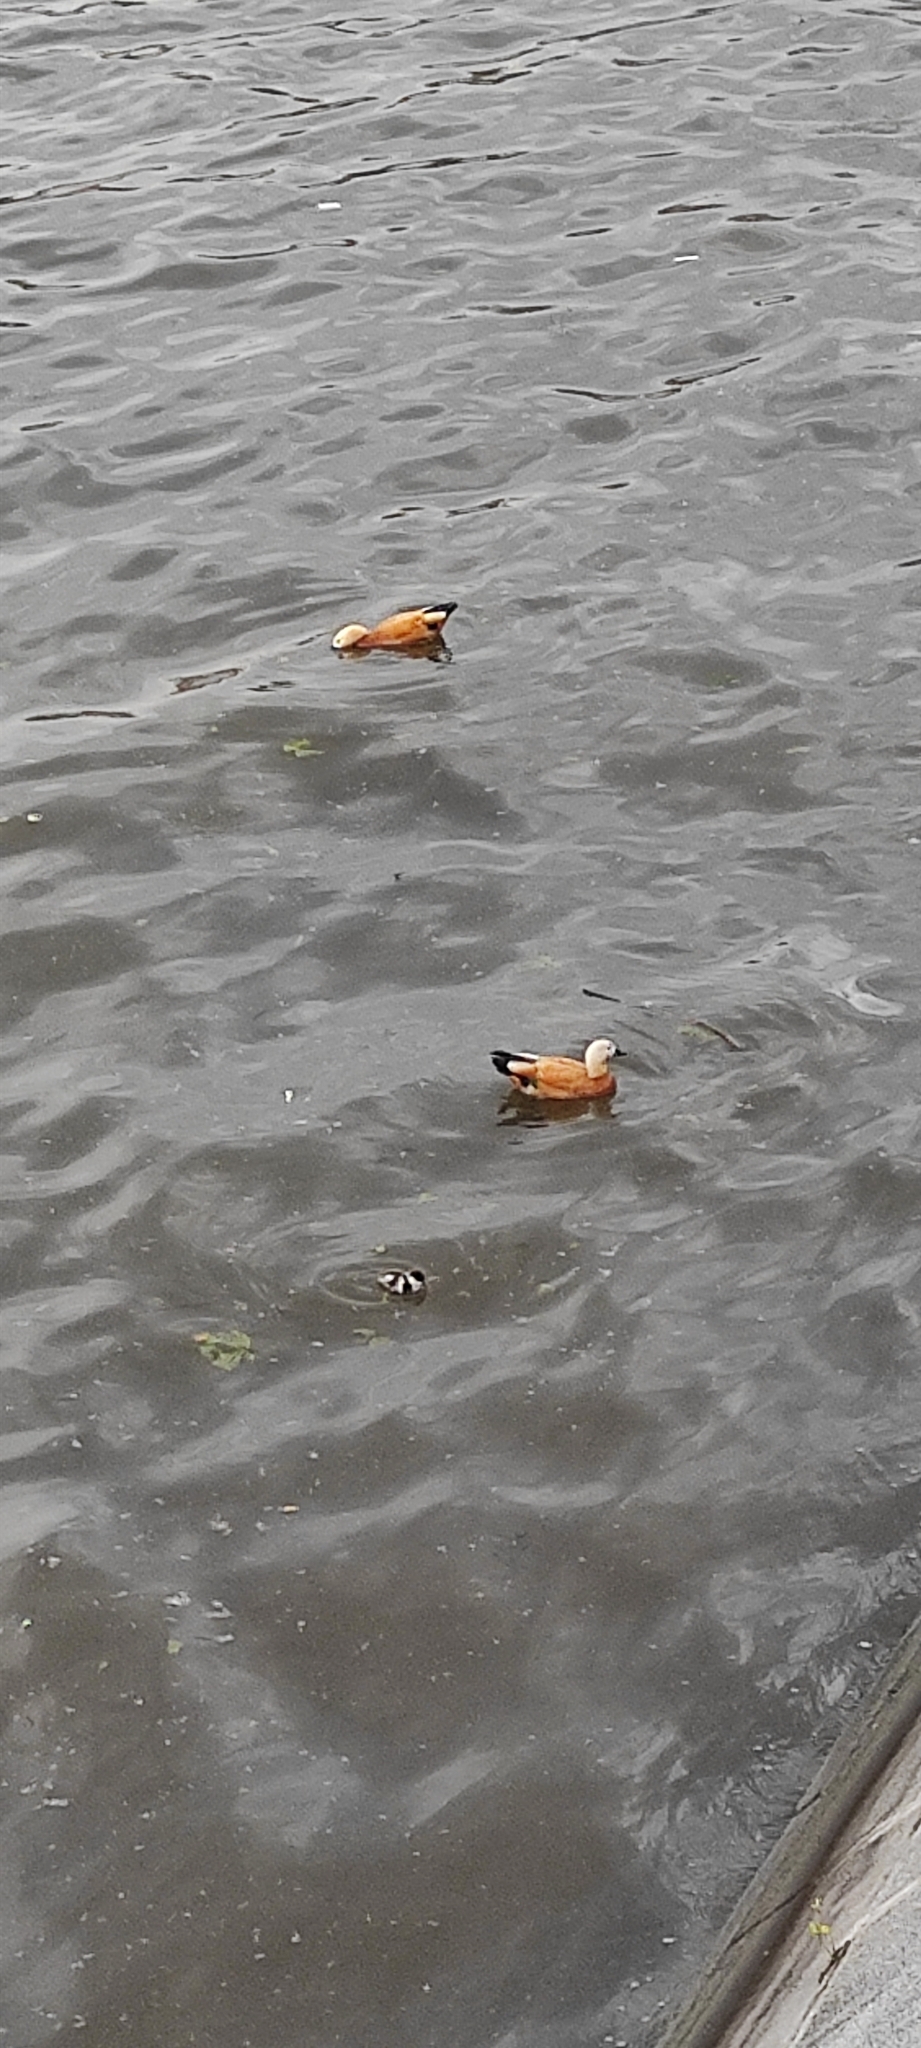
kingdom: Animalia
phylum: Chordata
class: Aves
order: Anseriformes
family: Anatidae
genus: Tadorna
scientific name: Tadorna ferruginea
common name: Ruddy shelduck
